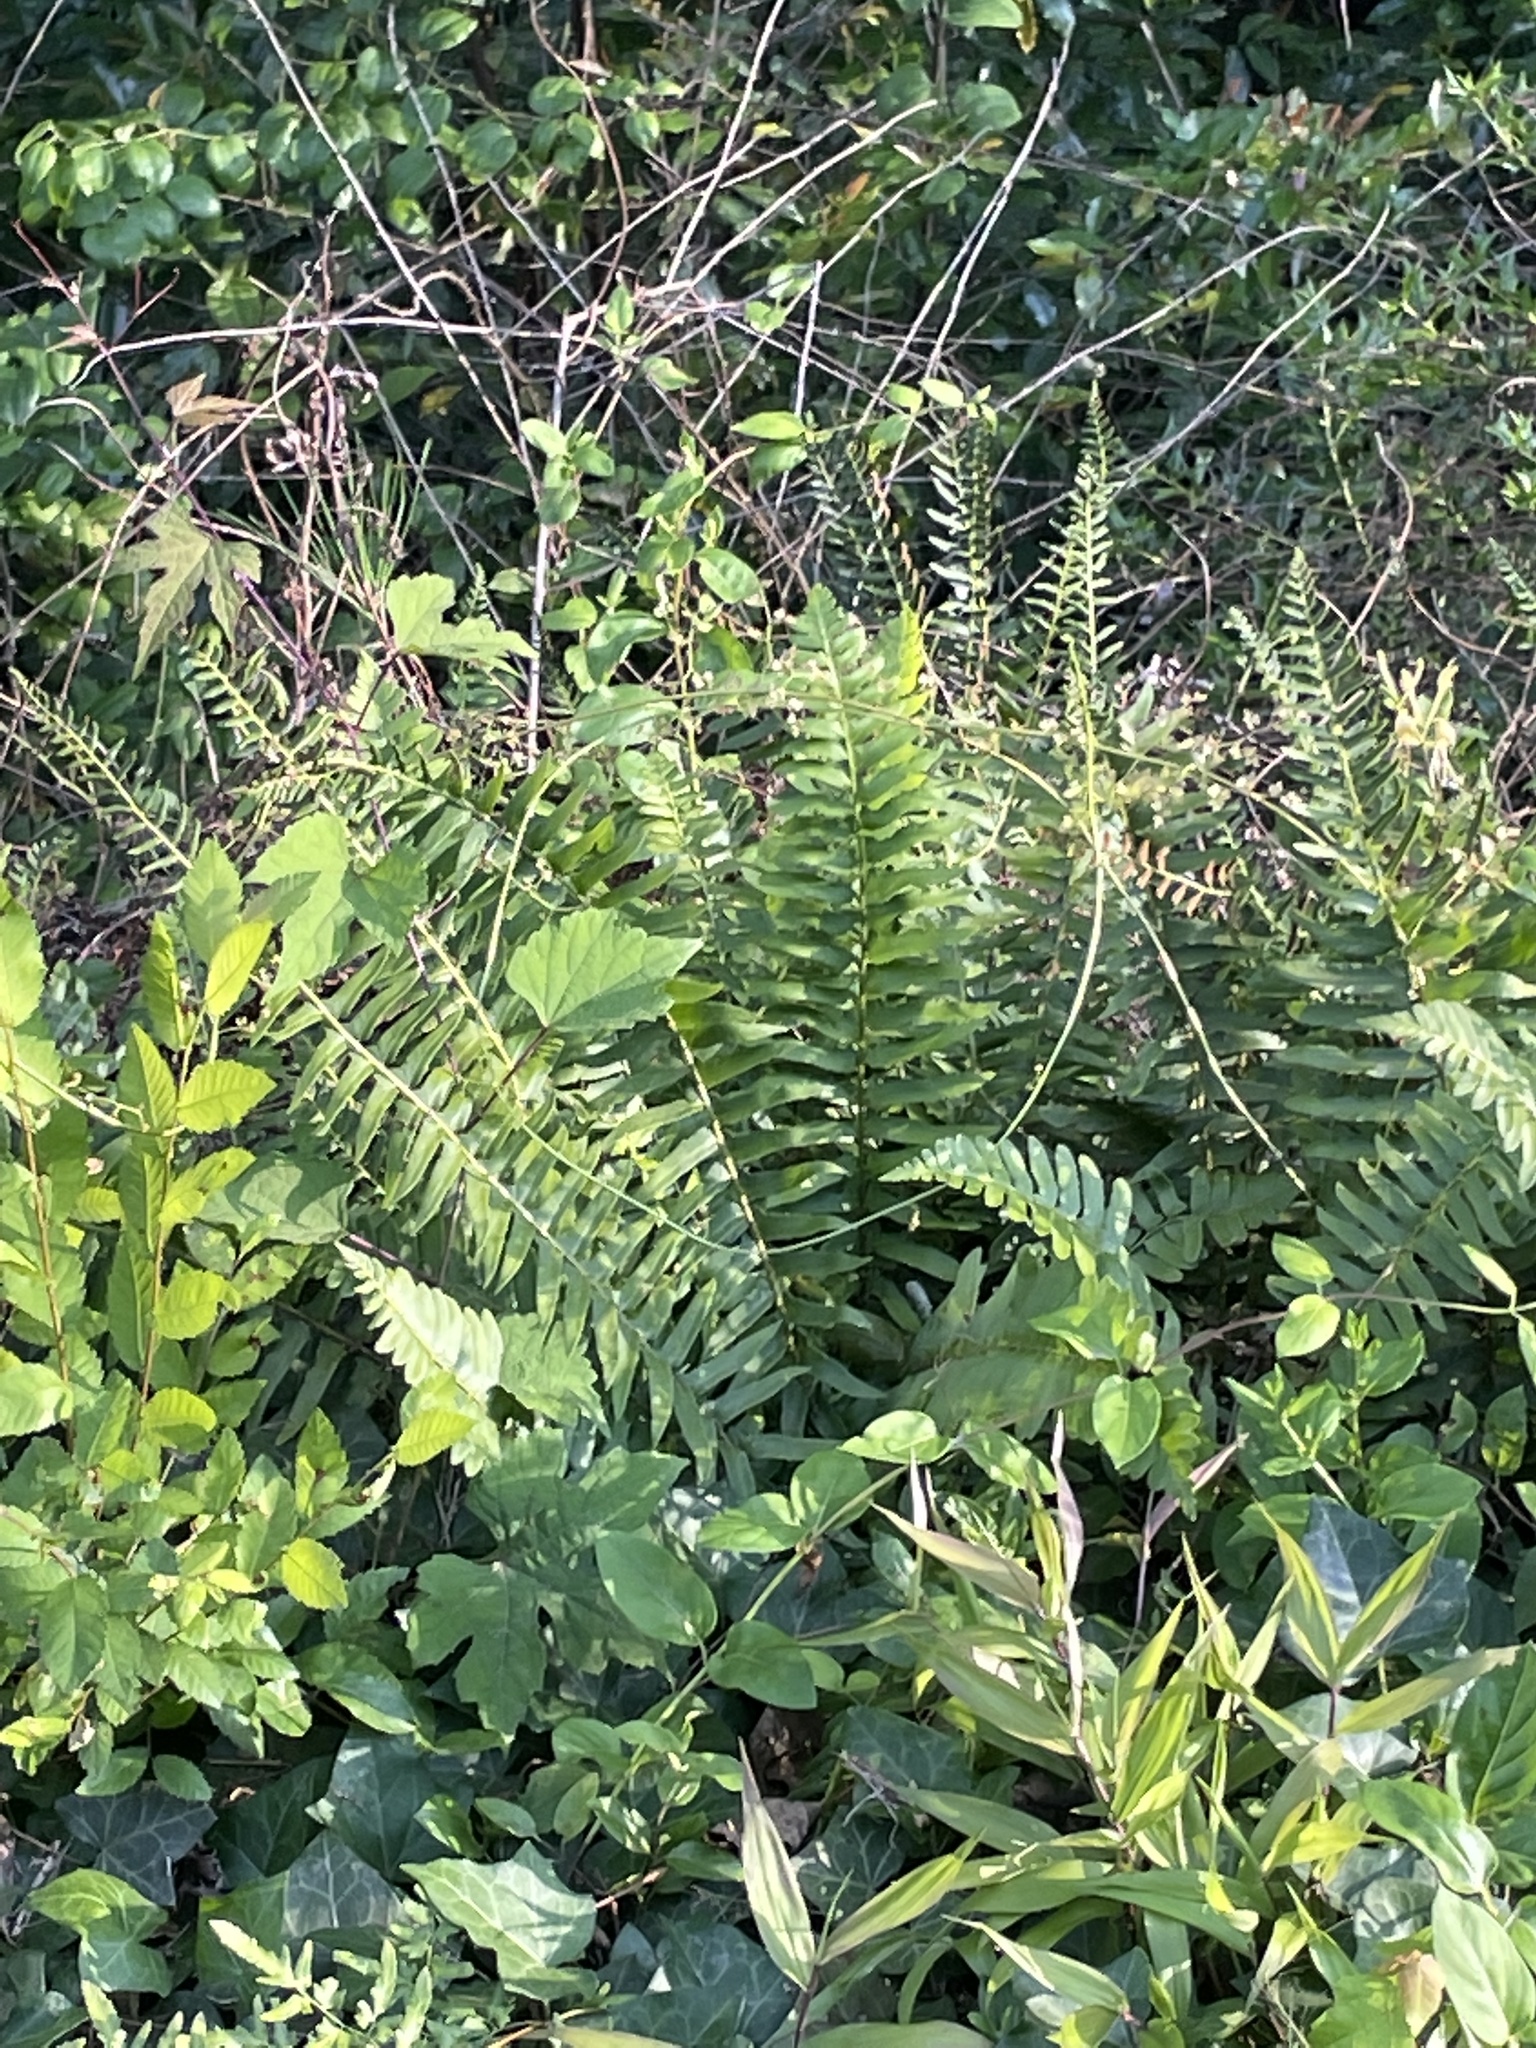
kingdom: Plantae
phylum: Tracheophyta
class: Polypodiopsida
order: Polypodiales
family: Dryopteridaceae
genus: Polystichum
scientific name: Polystichum acrostichoides
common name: Christmas fern
